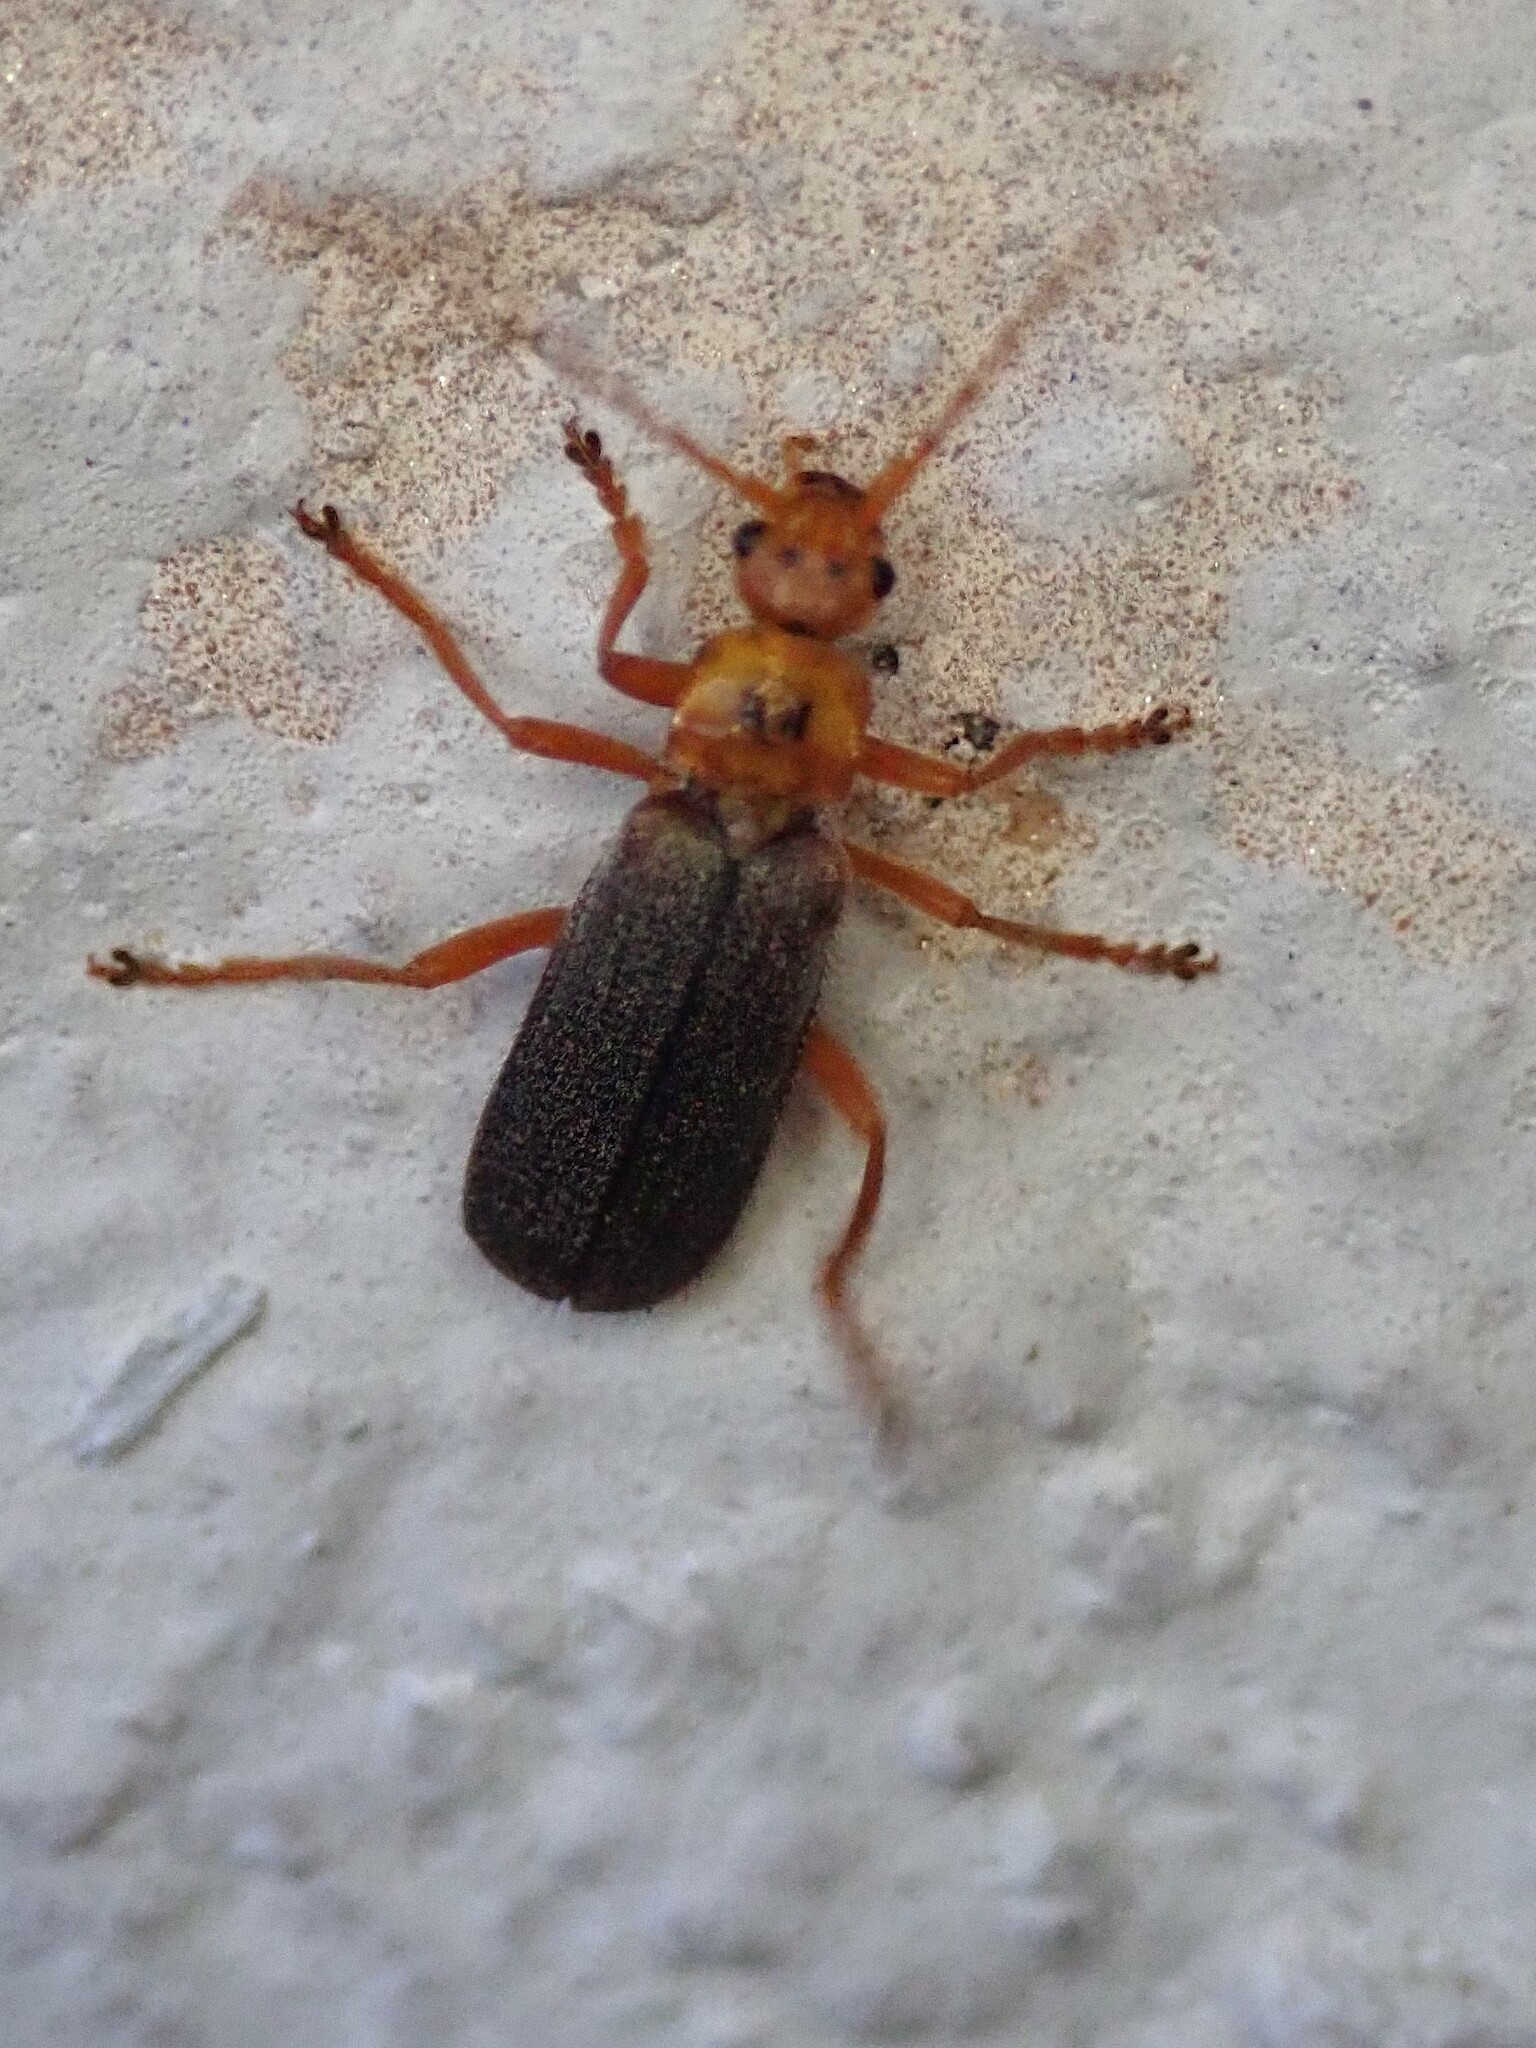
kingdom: Animalia
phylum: Arthropoda
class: Insecta
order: Coleoptera
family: Cantharidae
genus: Cultellunguis
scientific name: Cultellunguis americanus
